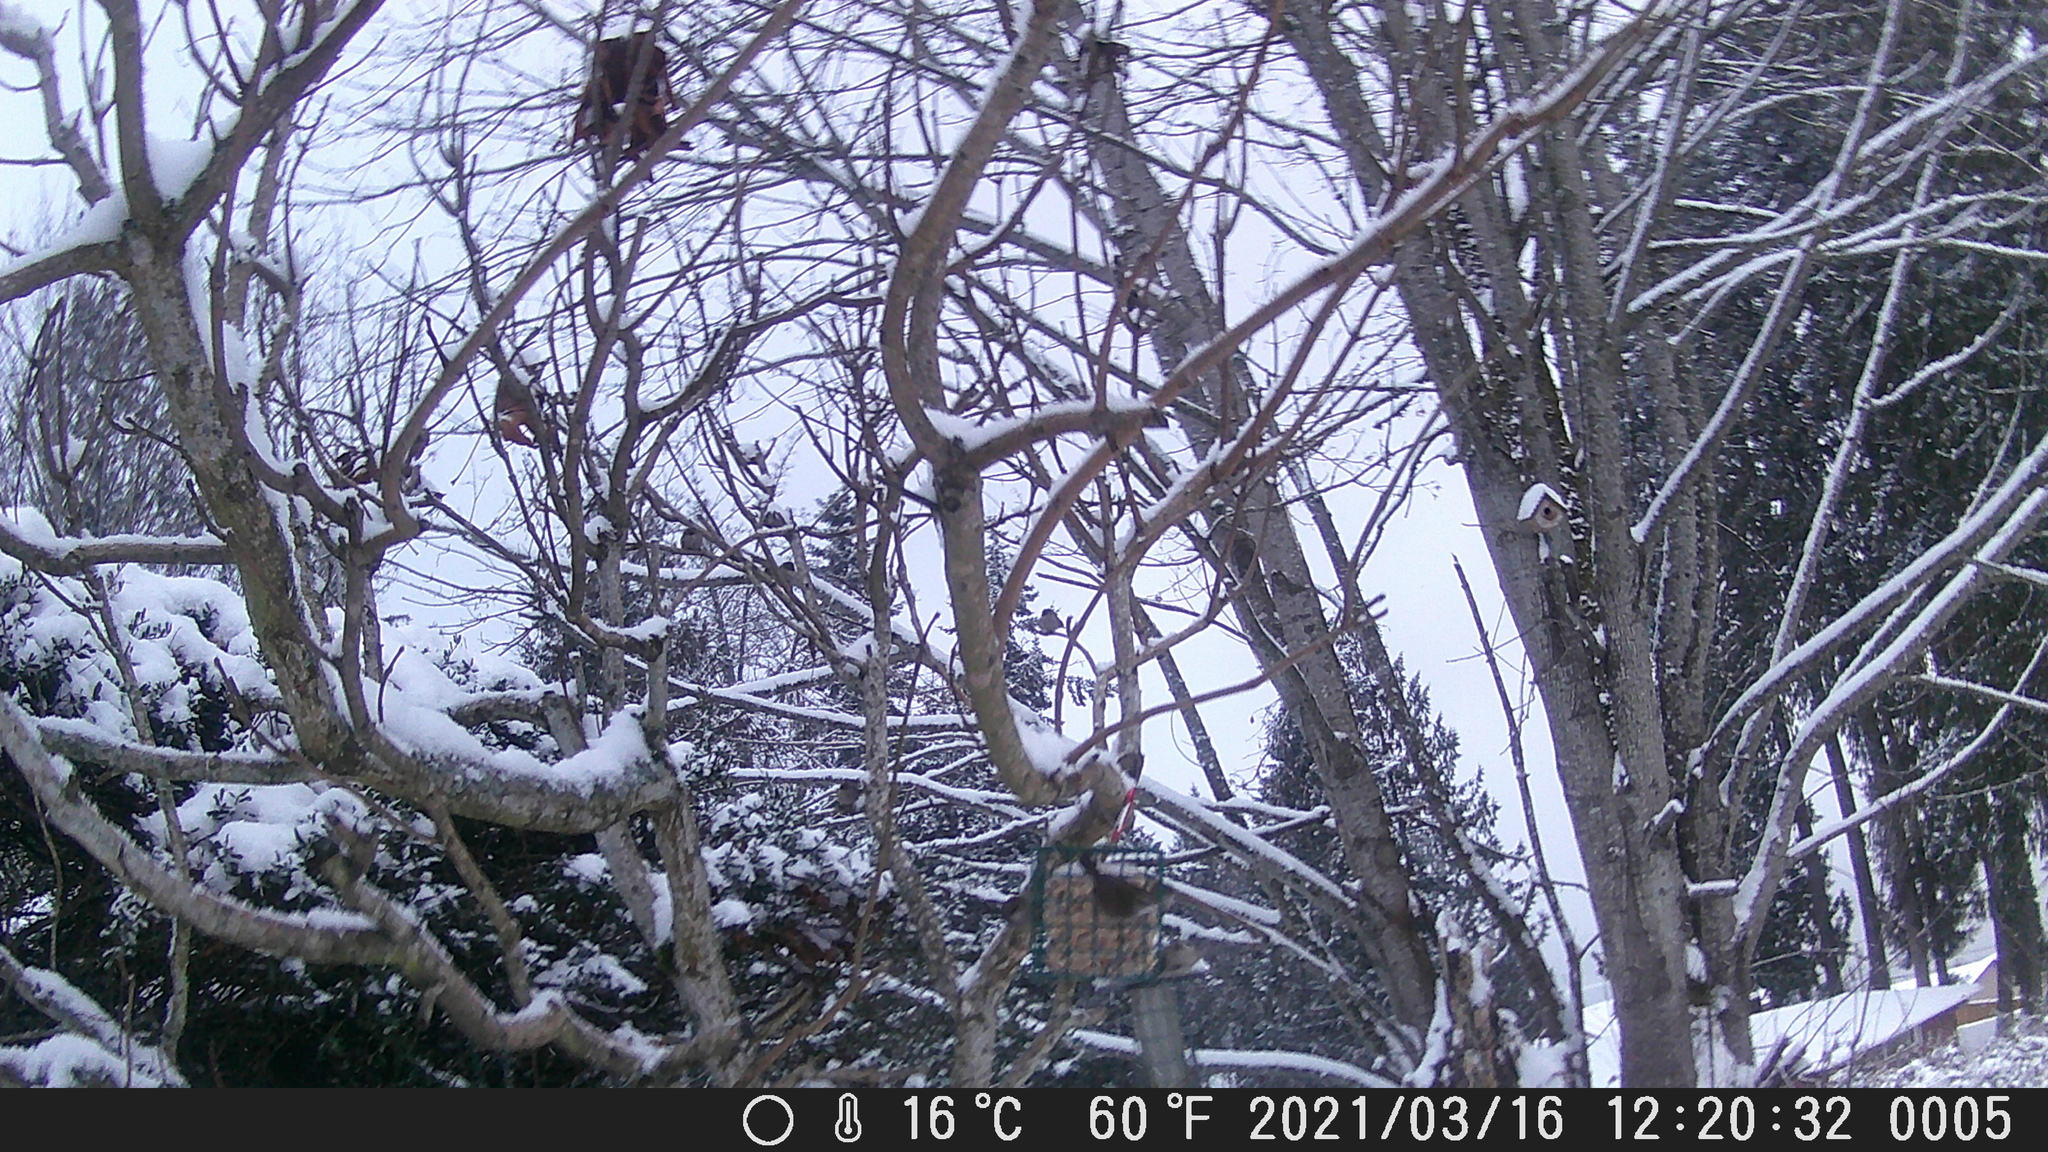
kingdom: Animalia
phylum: Chordata
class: Aves
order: Passeriformes
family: Troglodytidae
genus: Thryomanes
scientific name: Thryomanes bewickii
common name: Bewick's wren
